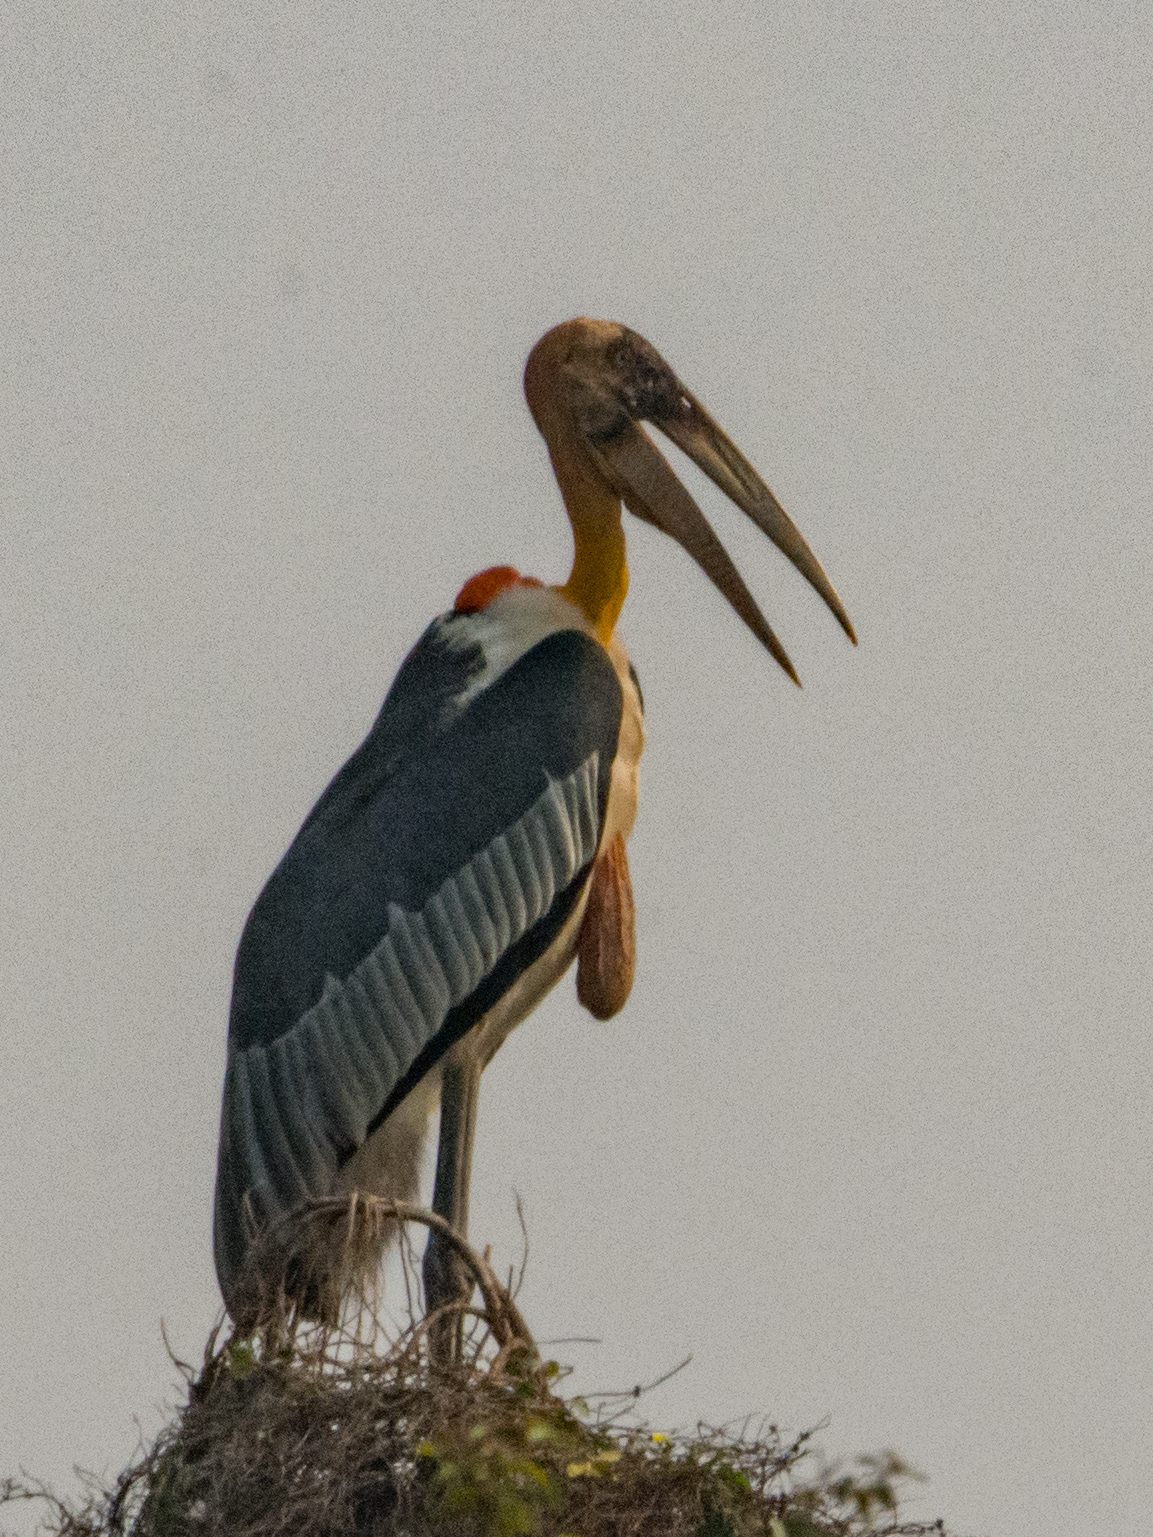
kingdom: Animalia
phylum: Chordata
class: Aves
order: Ciconiiformes
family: Ciconiidae
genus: Leptoptilos
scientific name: Leptoptilos dubius
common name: Greater adjutant
